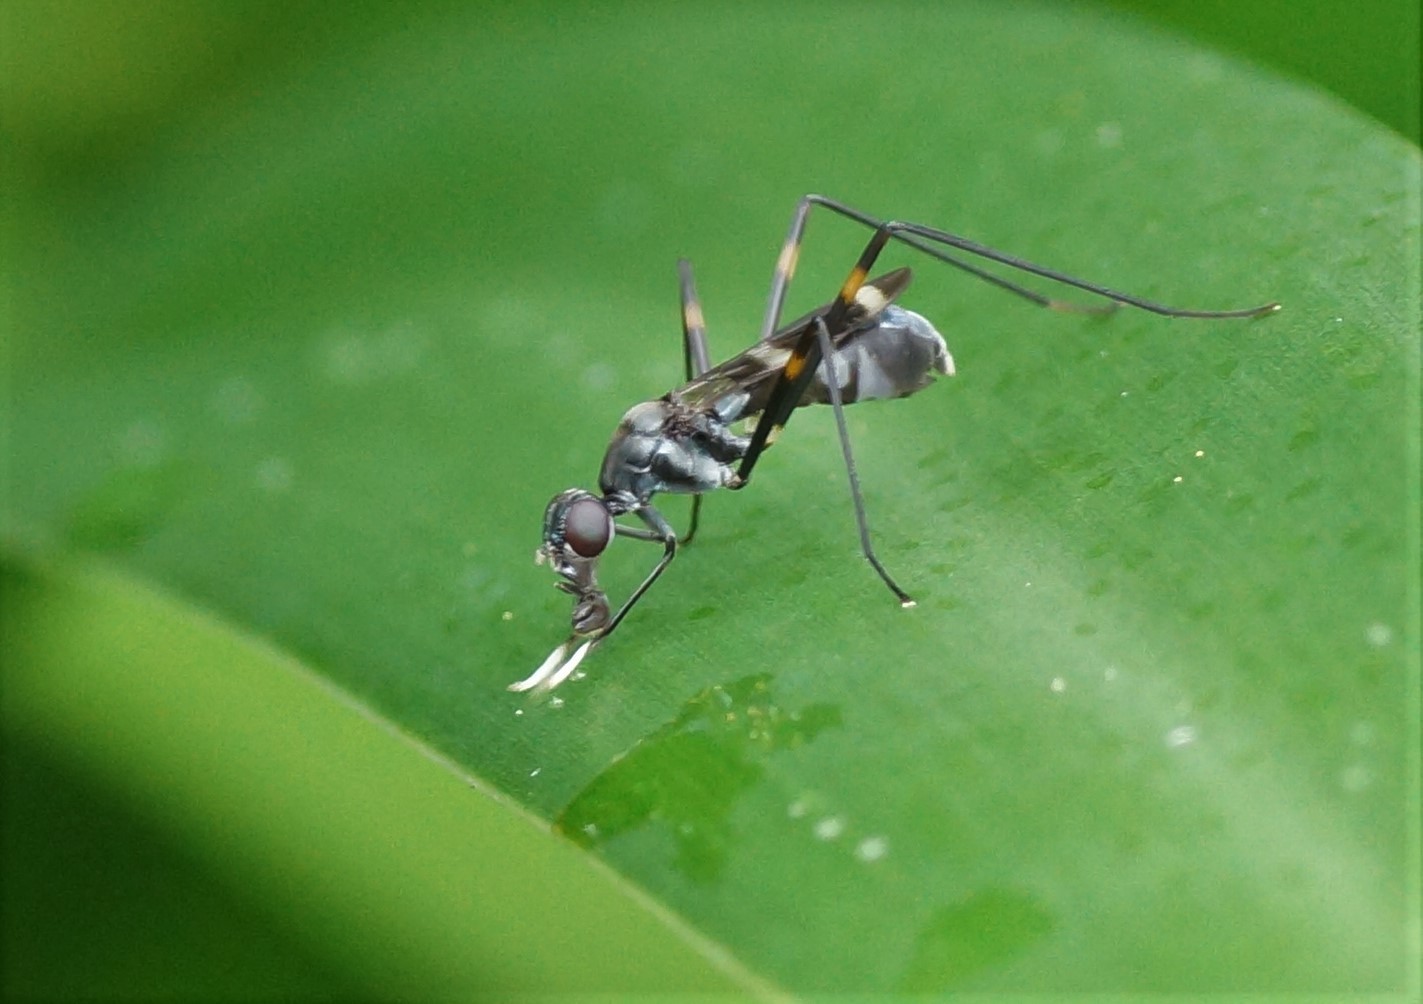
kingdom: Animalia
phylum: Arthropoda
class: Insecta
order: Diptera
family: Micropezidae
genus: Mimegralla
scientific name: Mimegralla australica
